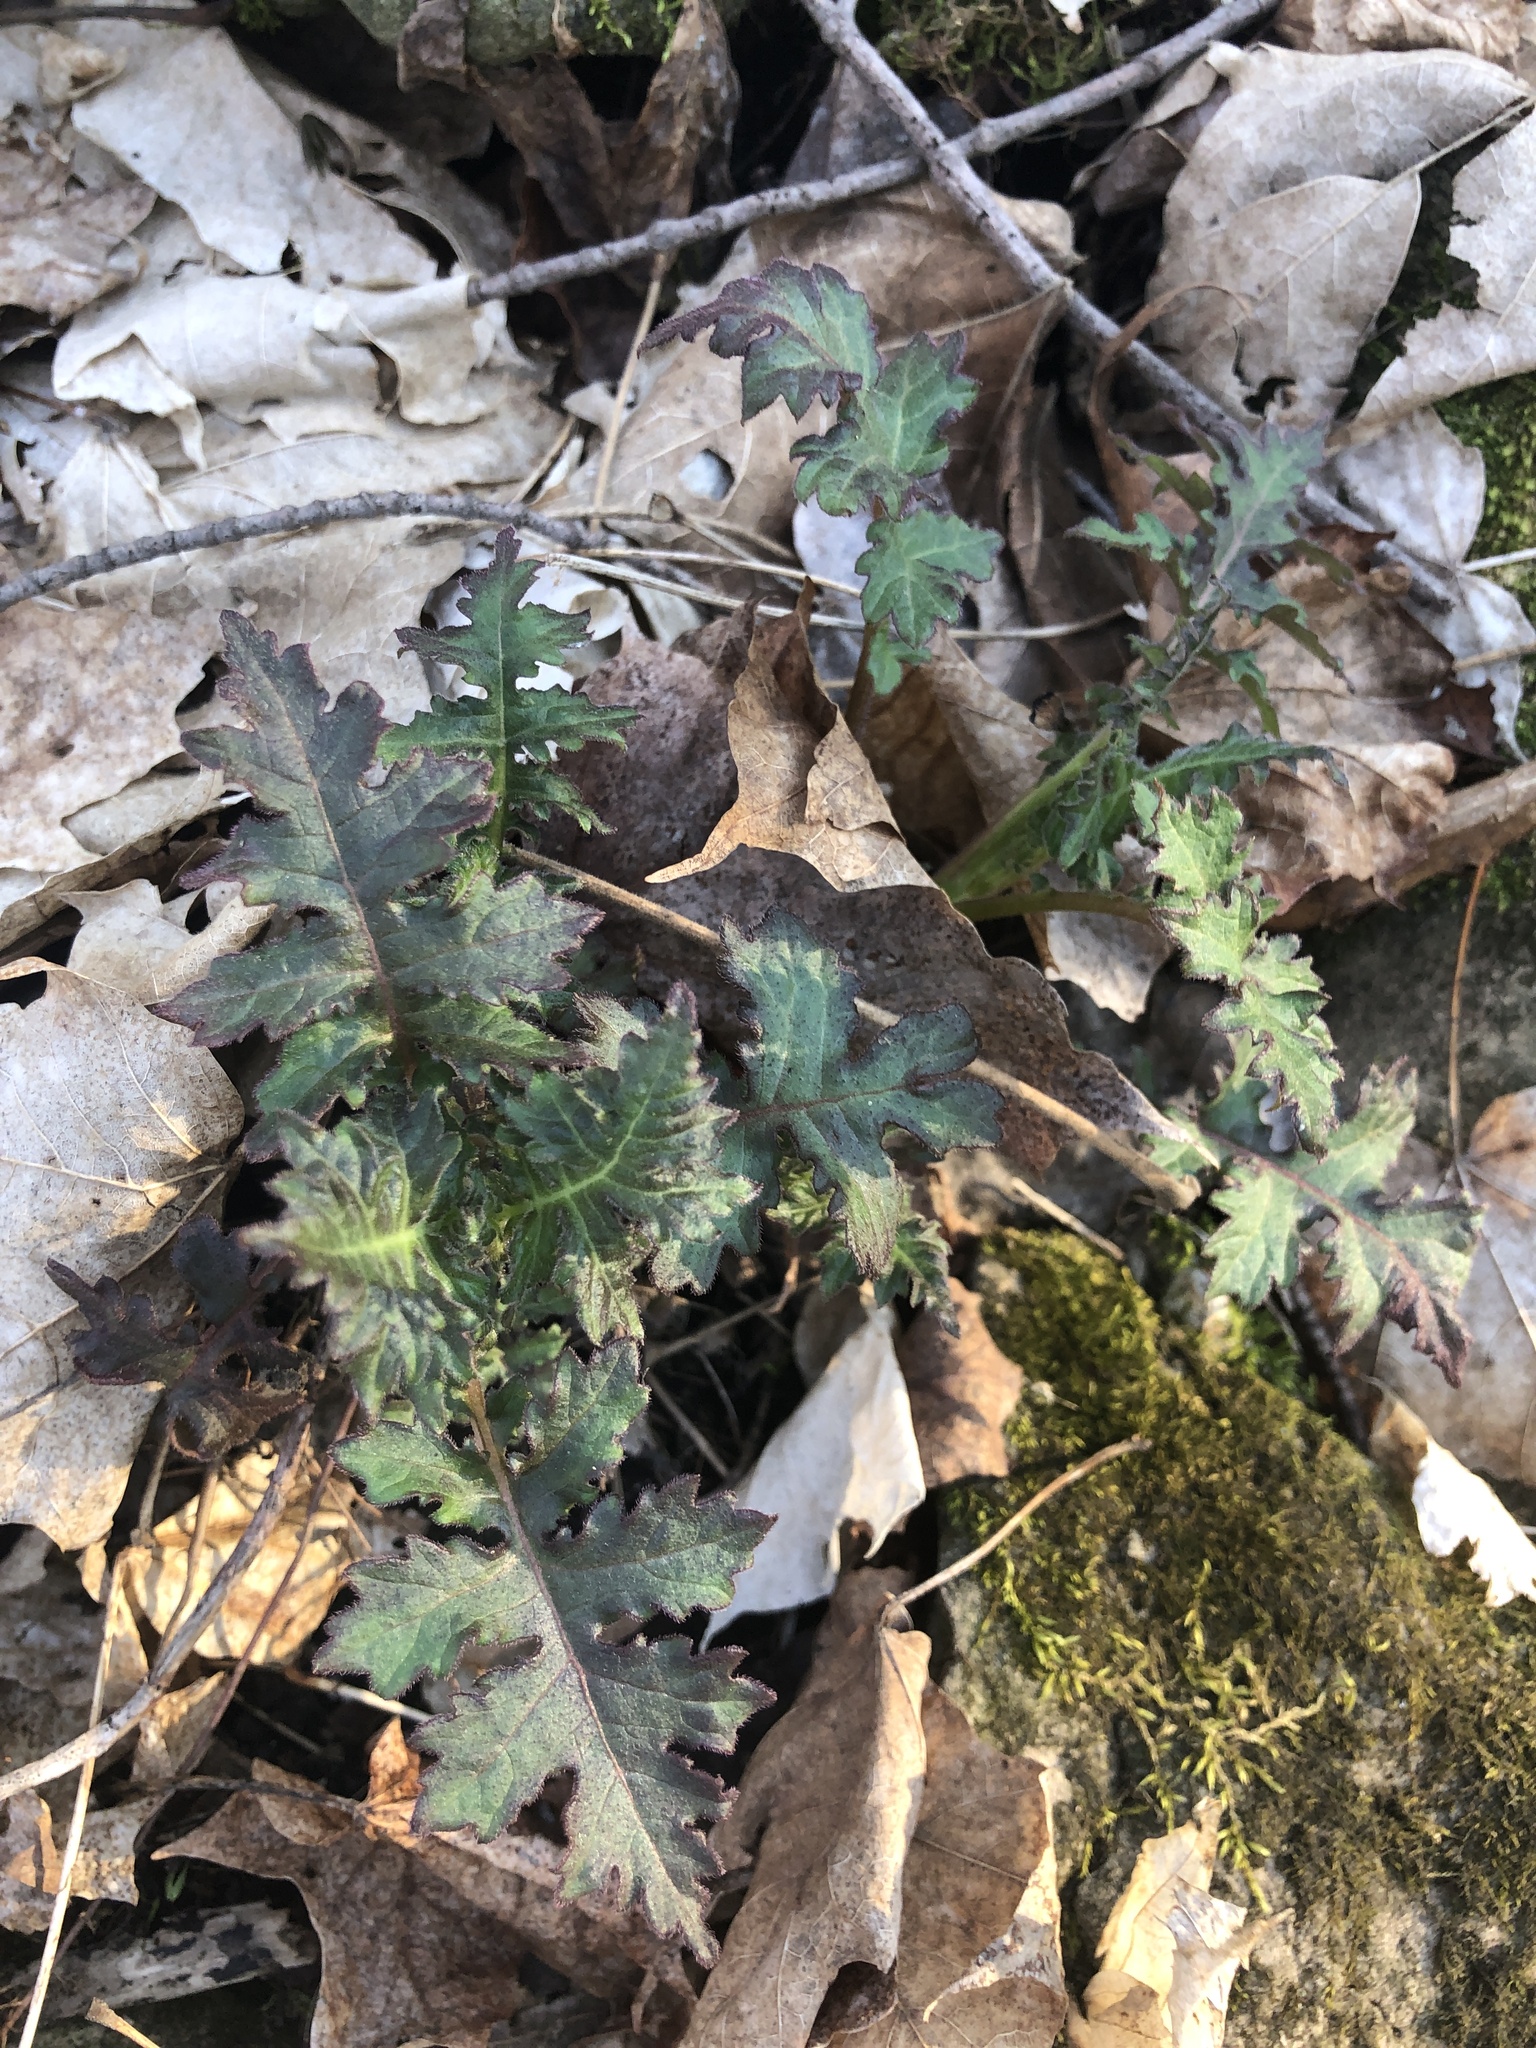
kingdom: Plantae
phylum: Tracheophyta
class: Magnoliopsida
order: Asterales
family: Asteraceae
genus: Polymnia
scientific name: Polymnia canadensis
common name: Pale-flowered leafcup
